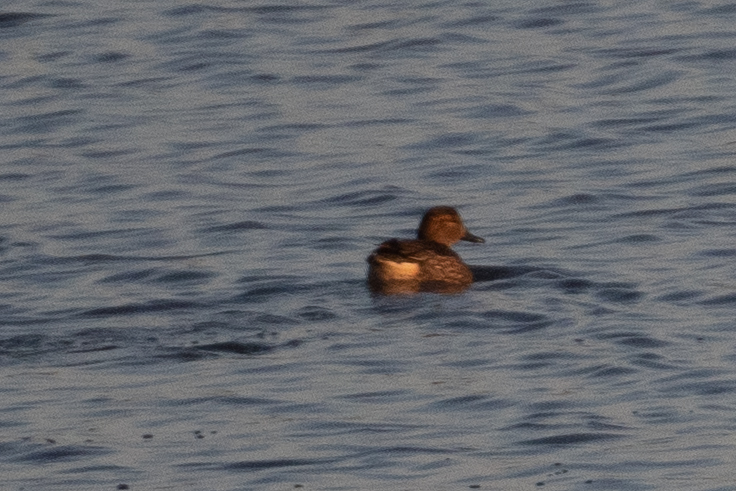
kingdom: Animalia
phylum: Chordata
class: Aves
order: Anseriformes
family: Anatidae
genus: Anas
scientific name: Anas crecca
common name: Eurasian teal
